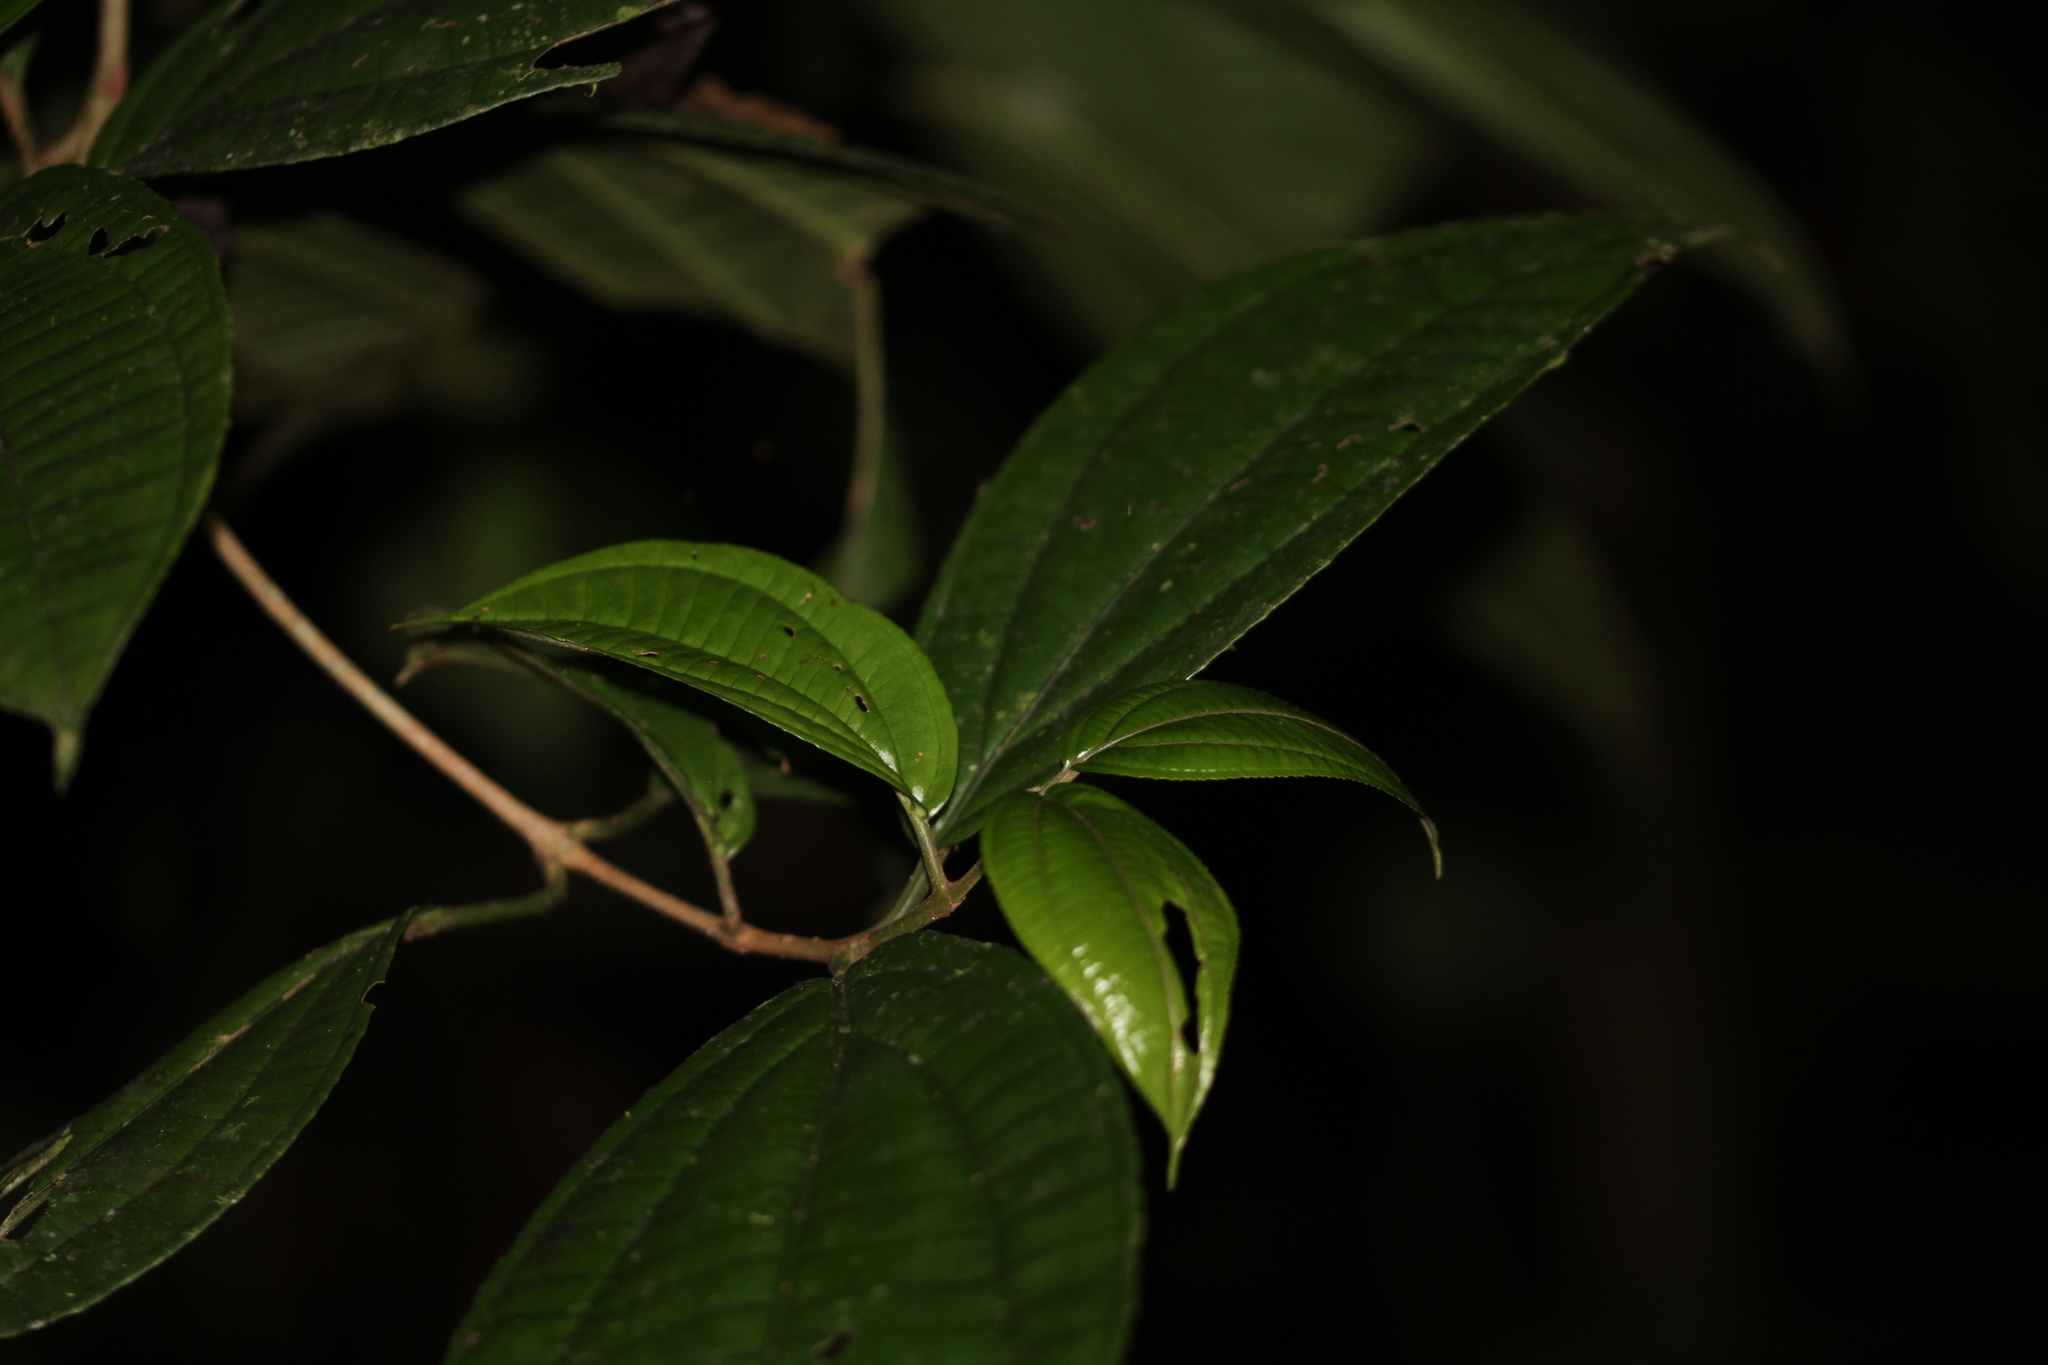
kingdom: Plantae
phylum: Tracheophyta
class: Magnoliopsida
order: Myrtales
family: Melastomataceae
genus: Henriettea
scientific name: Henriettea caudata
